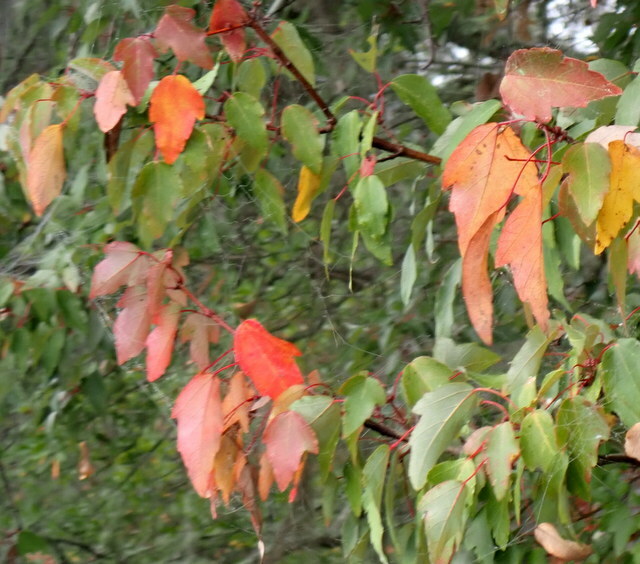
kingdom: Plantae
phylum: Tracheophyta
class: Magnoliopsida
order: Sapindales
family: Sapindaceae
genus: Acer
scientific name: Acer rubrum
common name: Red maple
